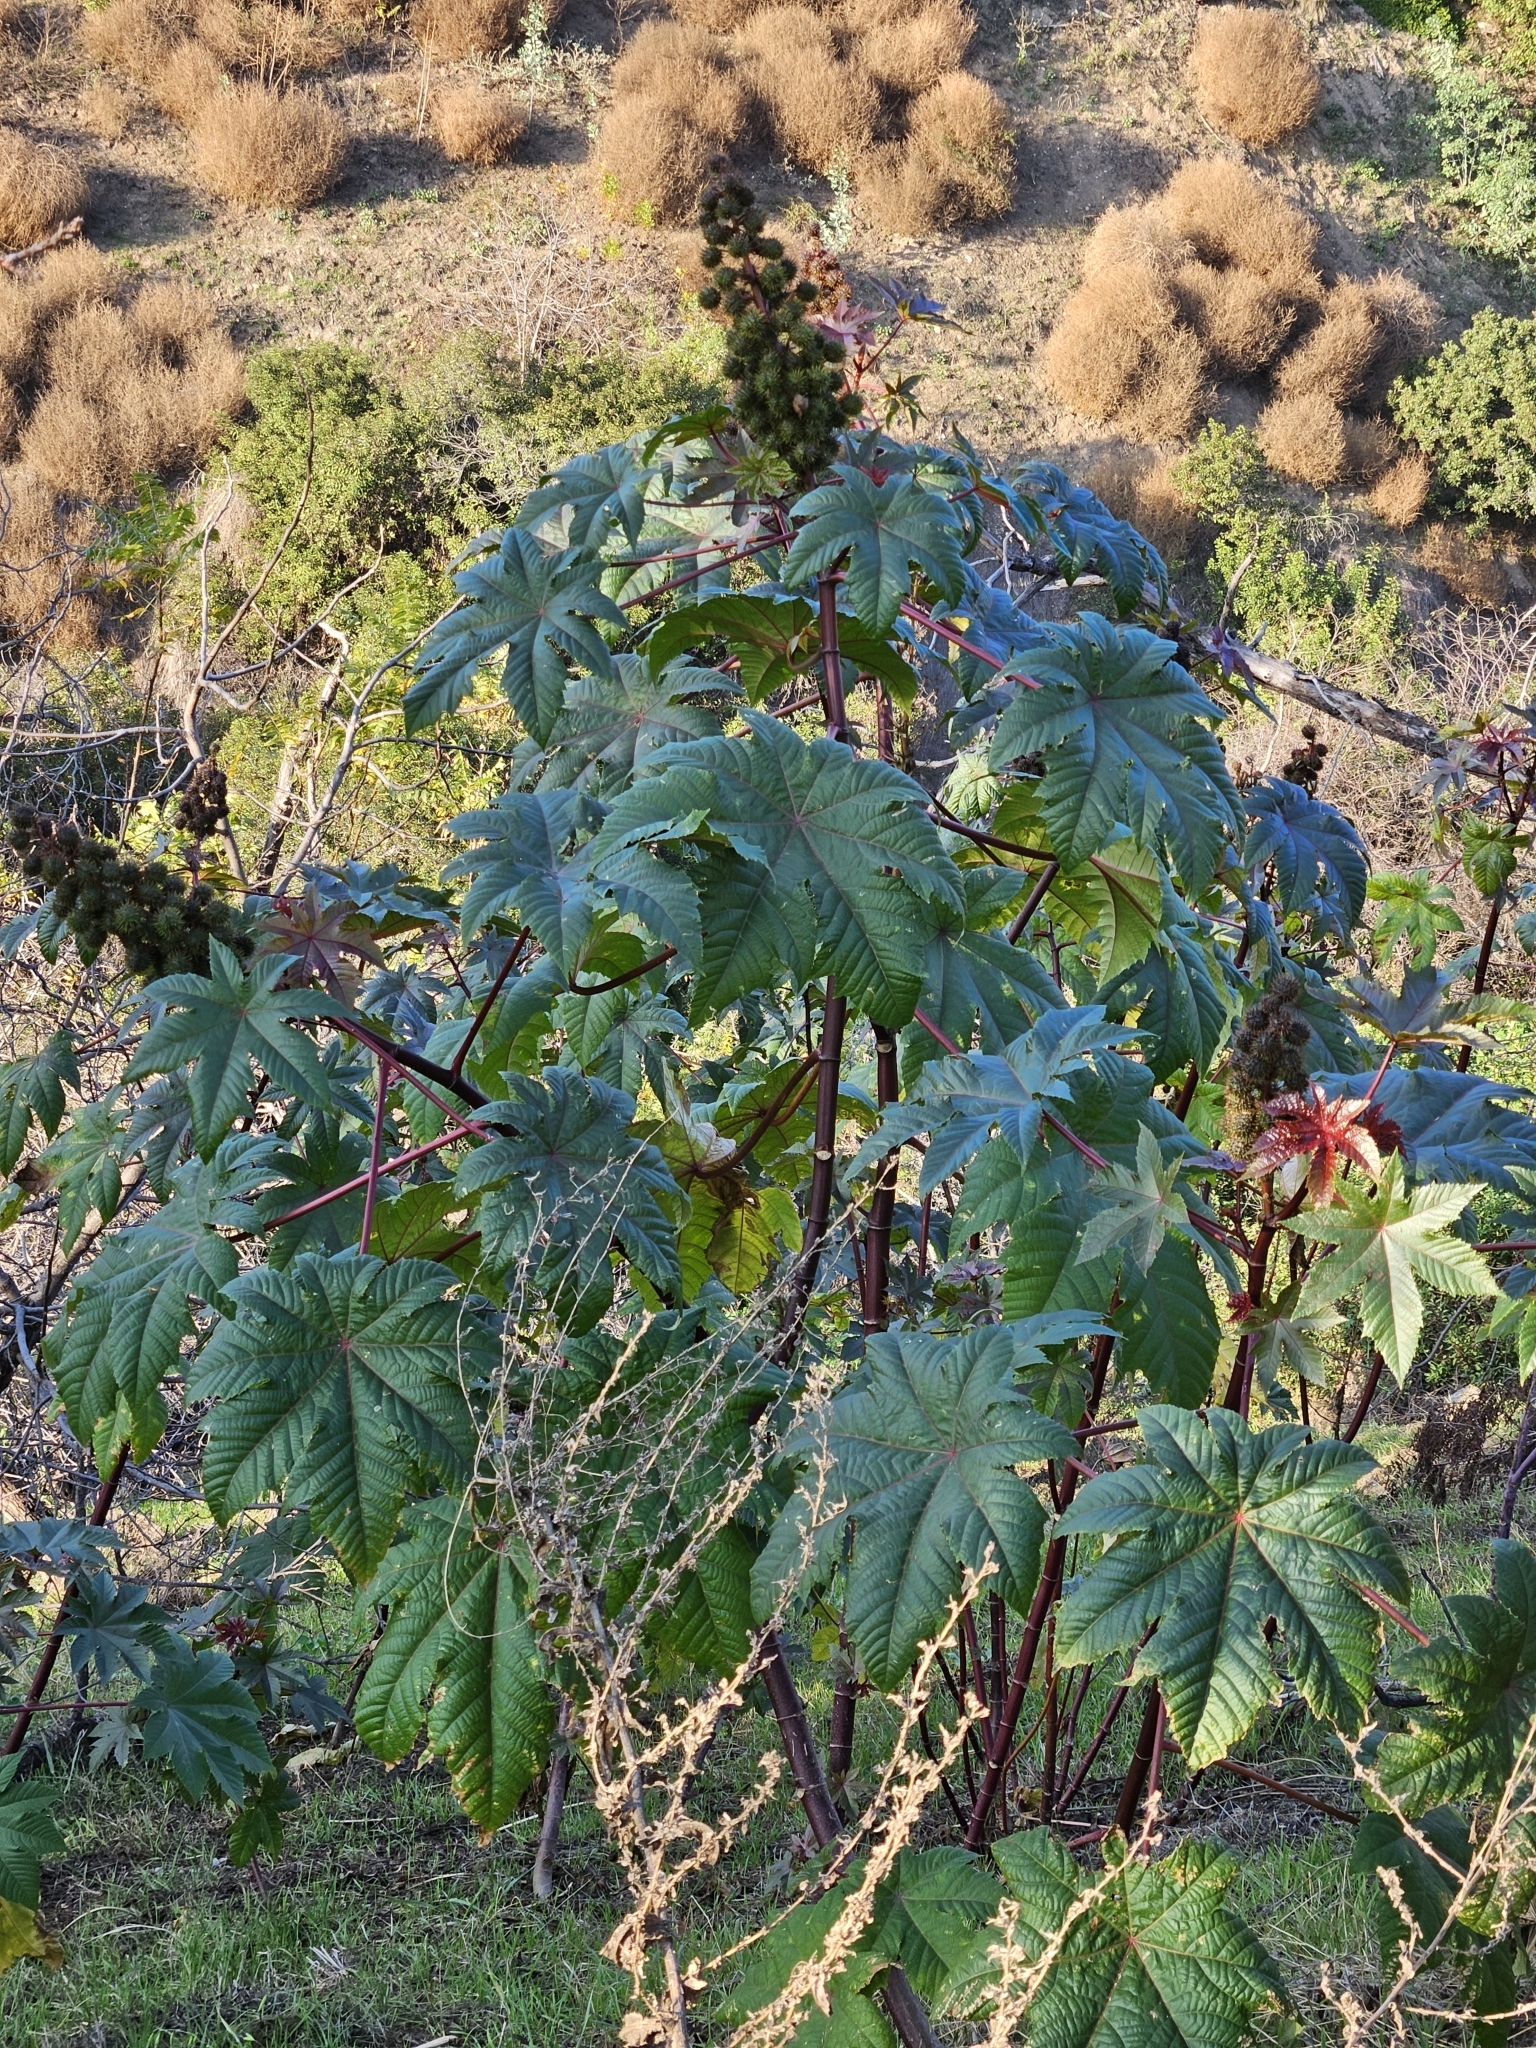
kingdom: Plantae
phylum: Tracheophyta
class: Magnoliopsida
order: Malpighiales
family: Euphorbiaceae
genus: Ricinus
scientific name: Ricinus communis
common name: Castor-oil-plant
